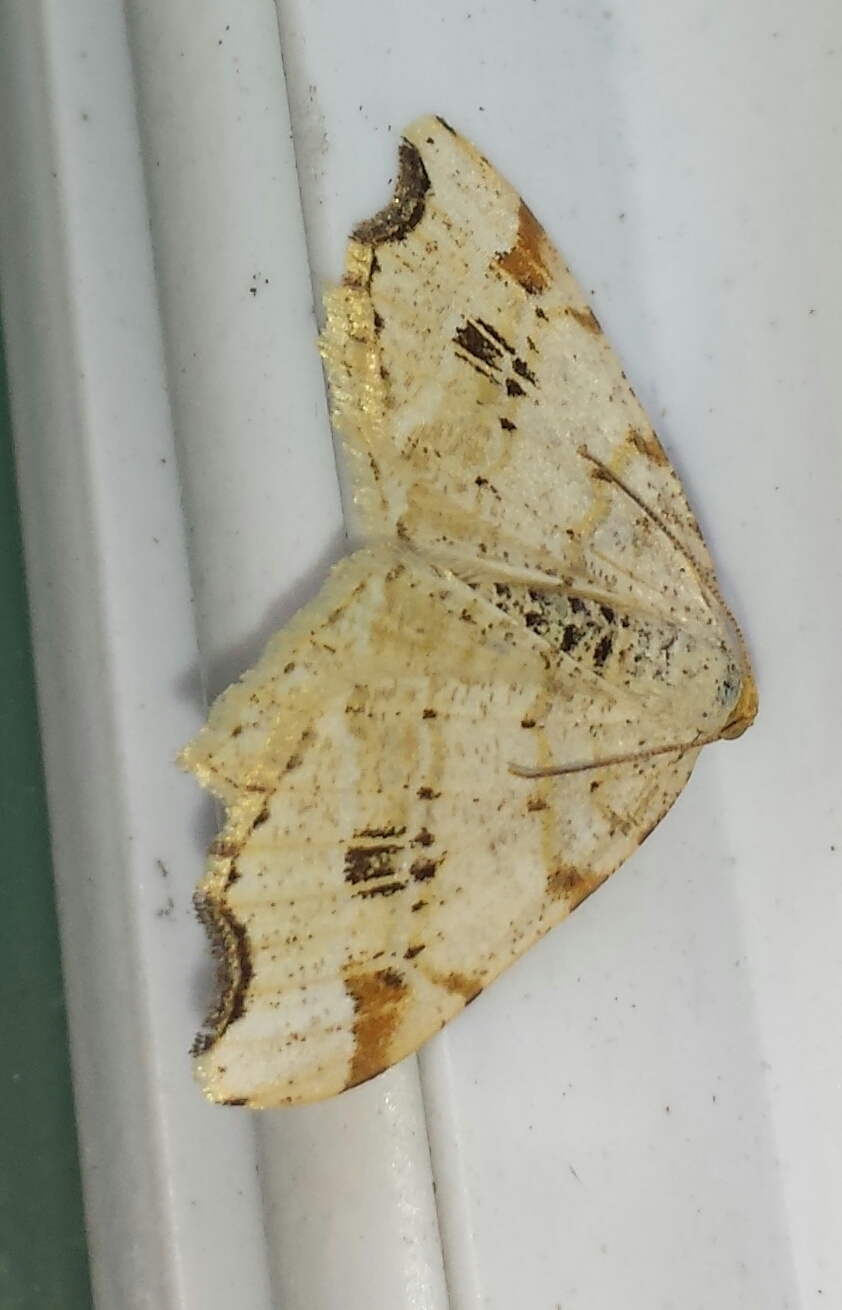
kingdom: Animalia
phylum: Arthropoda
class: Insecta
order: Lepidoptera
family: Geometridae
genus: Macaria
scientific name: Macaria aemulataria
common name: Common angle
